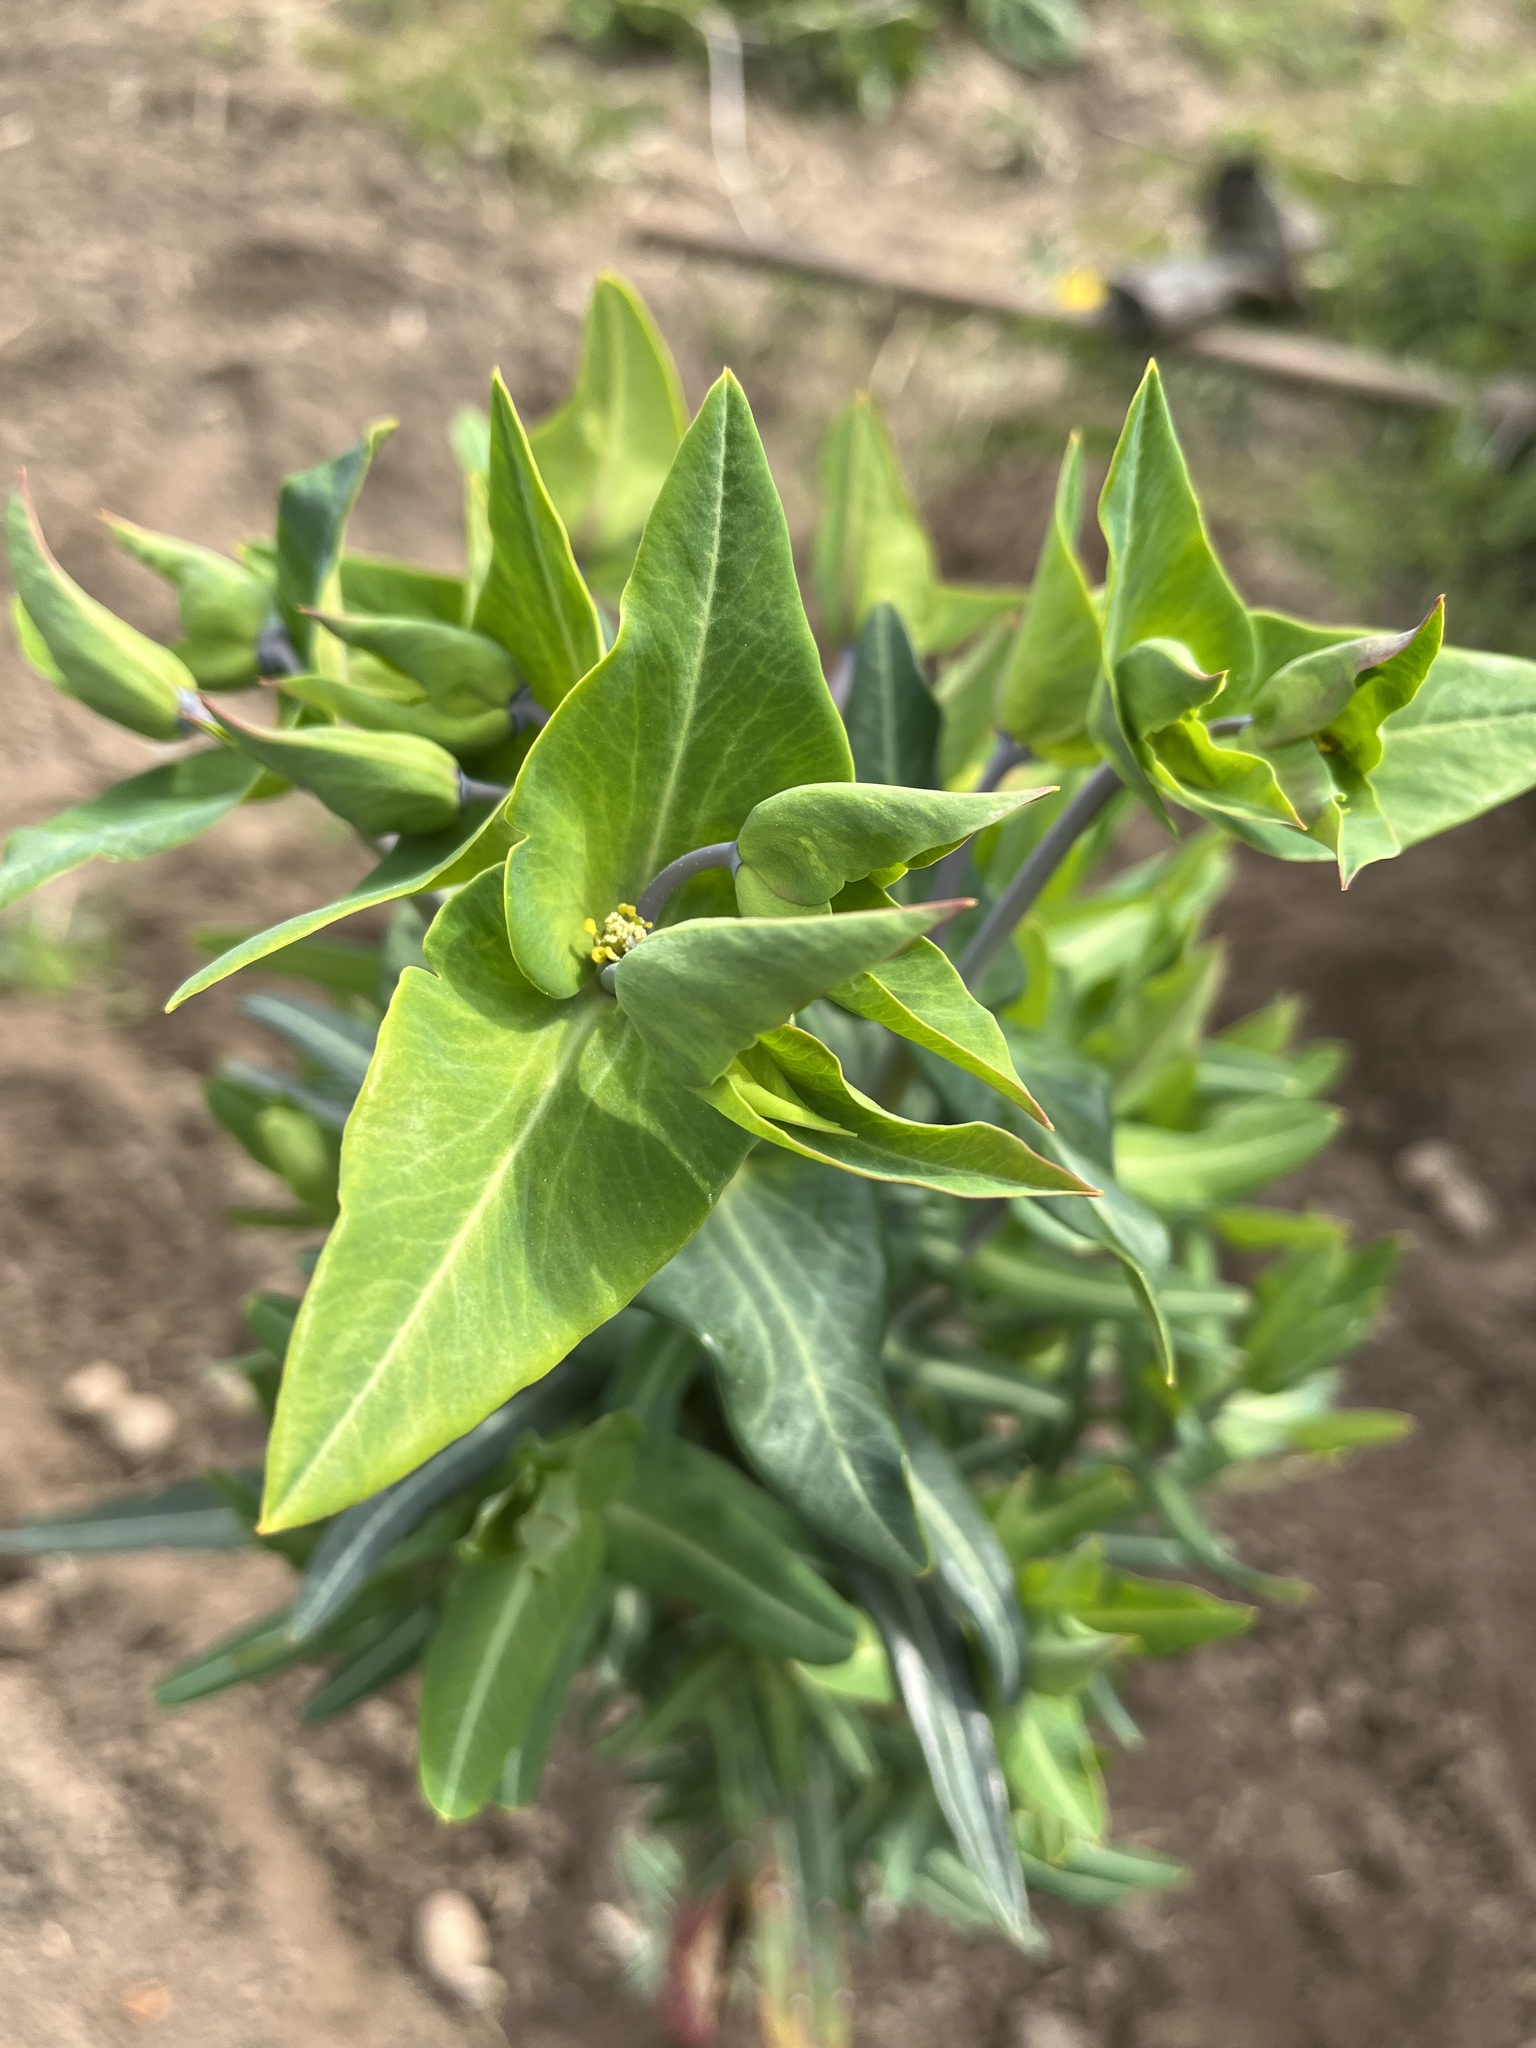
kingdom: Plantae
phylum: Tracheophyta
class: Magnoliopsida
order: Malpighiales
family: Euphorbiaceae
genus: Euphorbia
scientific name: Euphorbia lathyris
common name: Caper spurge
